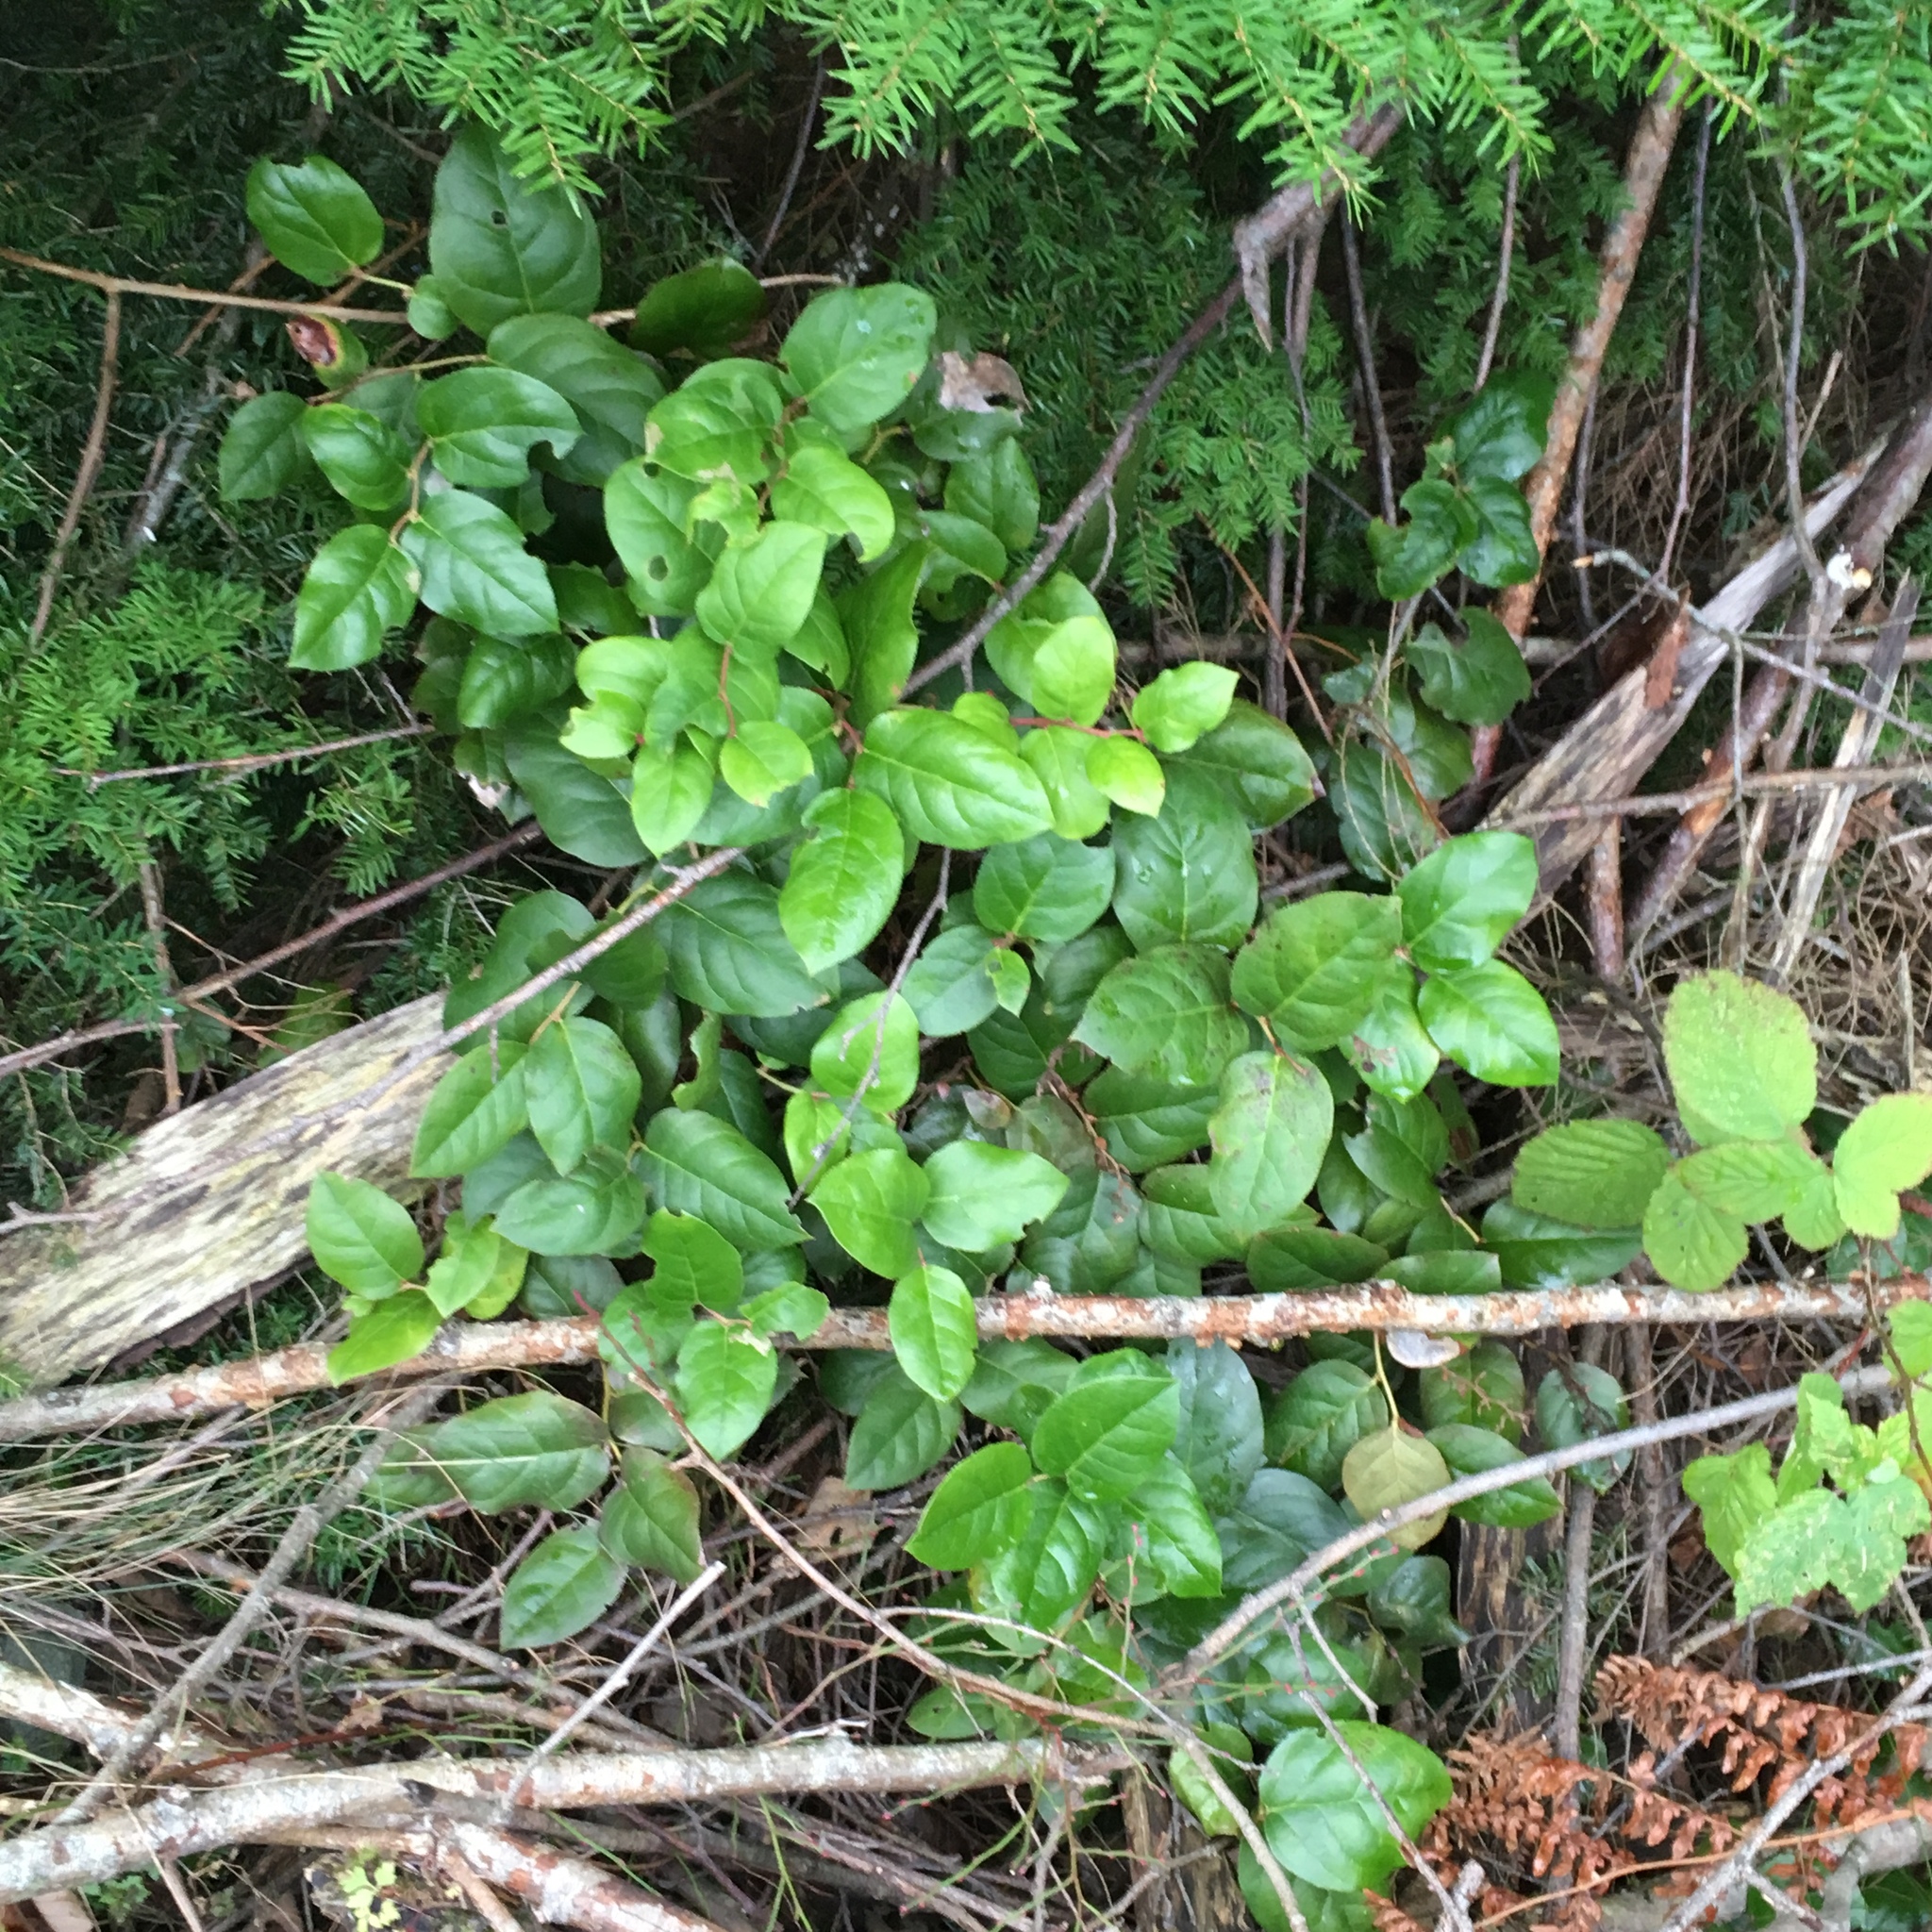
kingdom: Plantae
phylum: Tracheophyta
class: Magnoliopsida
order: Ericales
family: Ericaceae
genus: Gaultheria
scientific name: Gaultheria shallon
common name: Shallon
